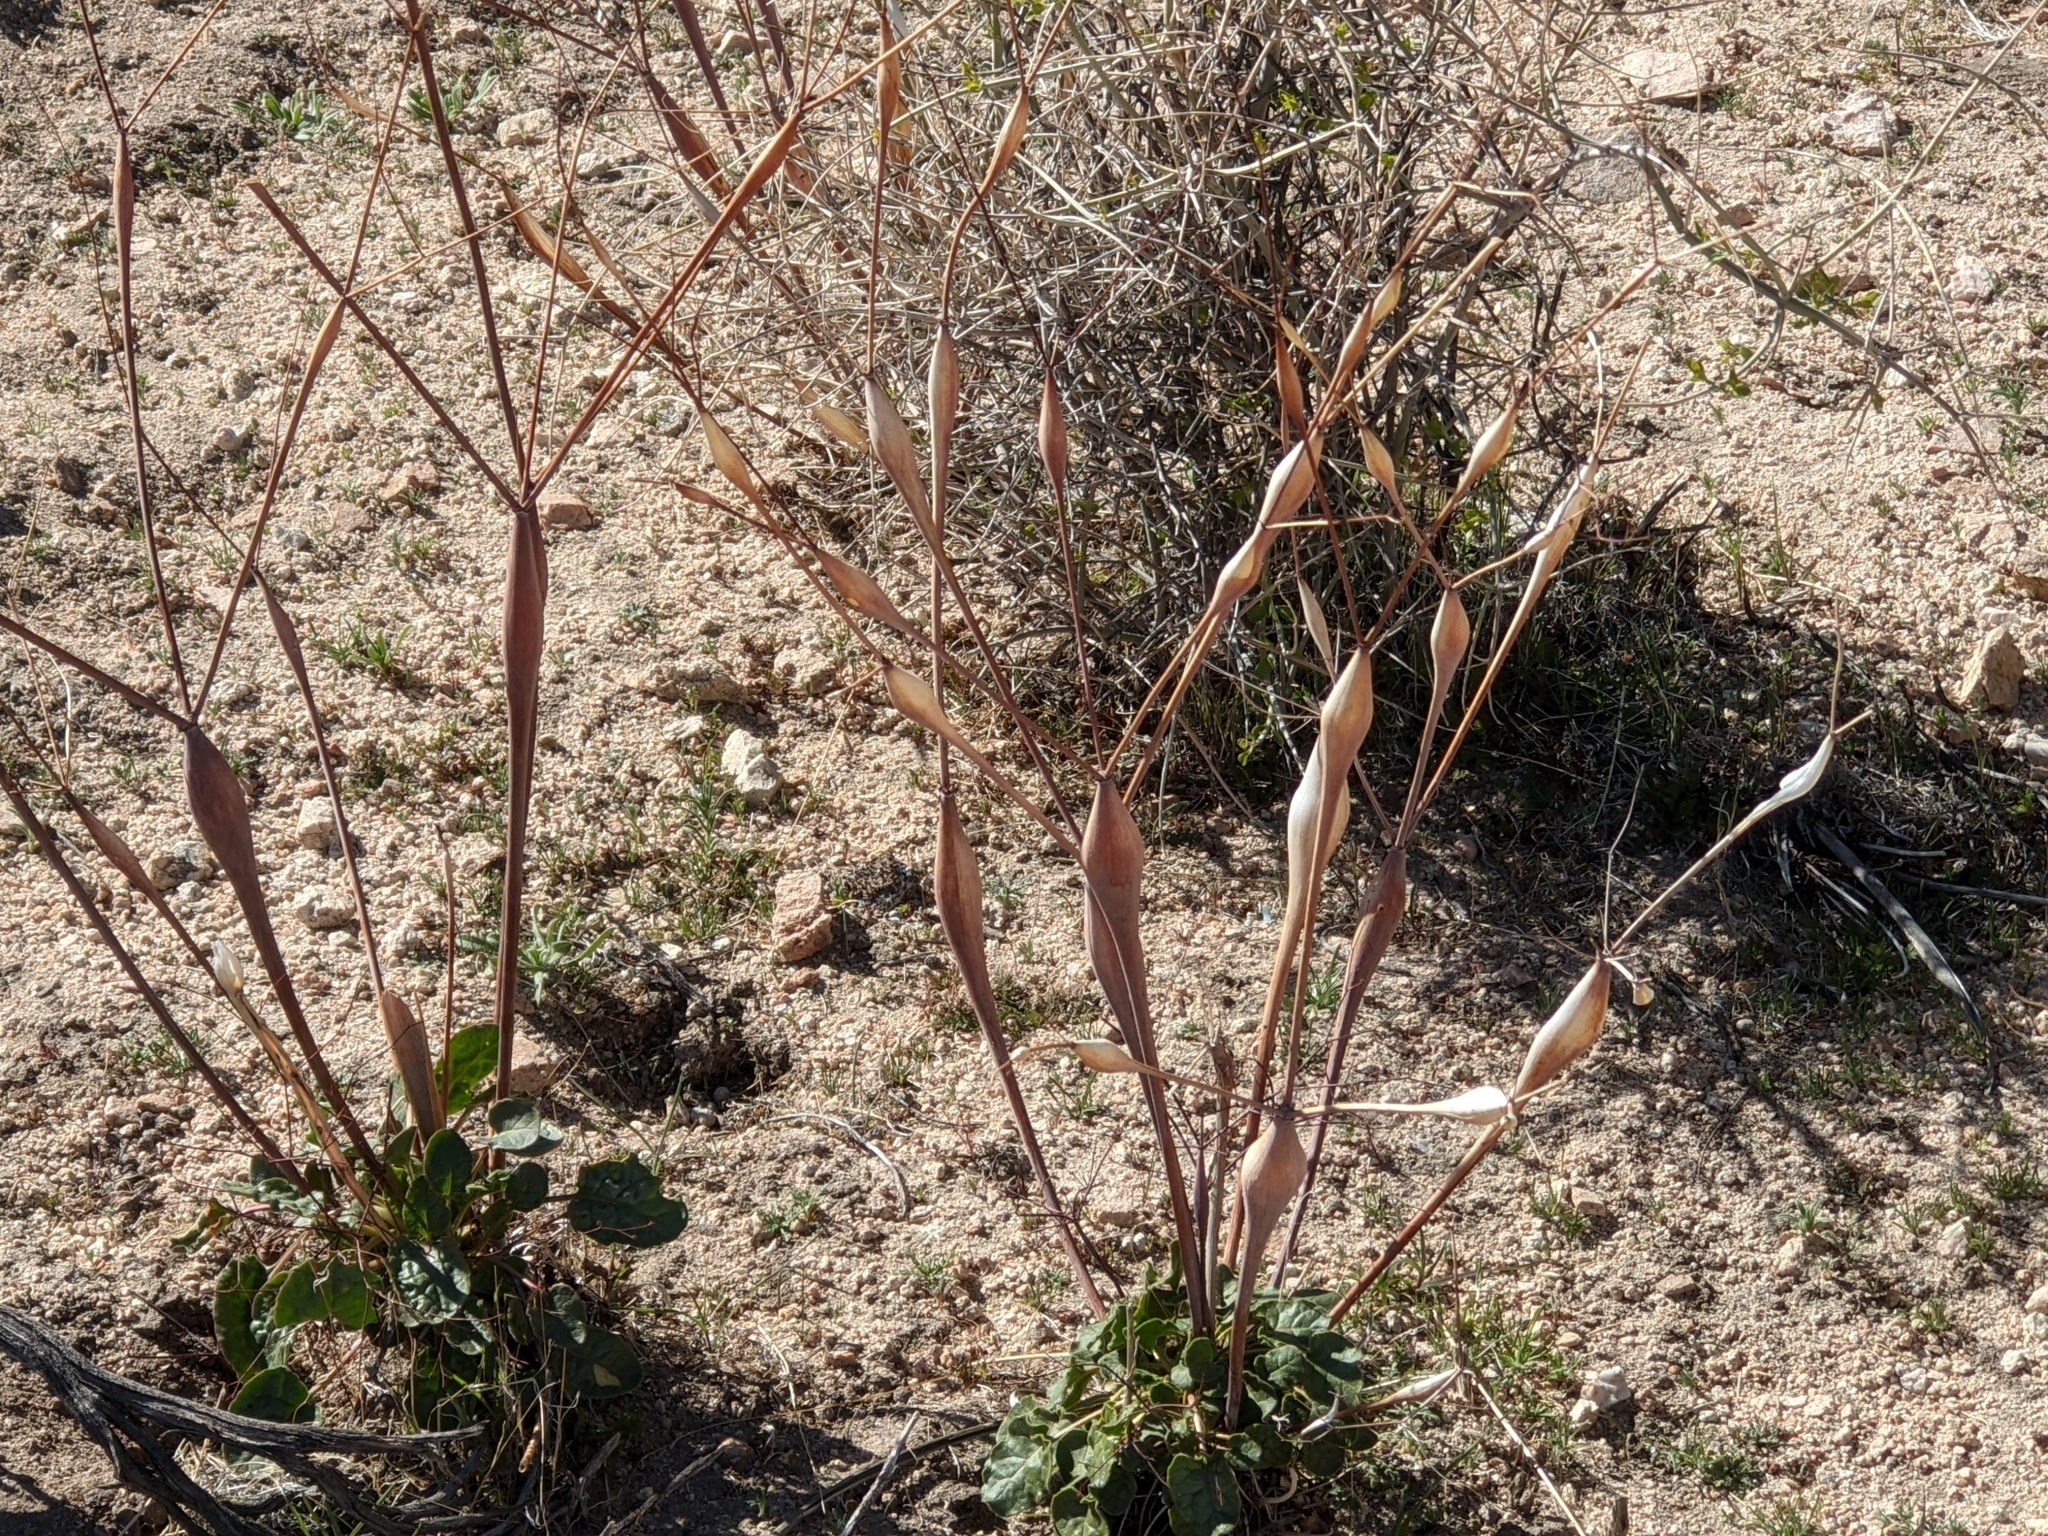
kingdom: Plantae
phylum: Tracheophyta
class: Magnoliopsida
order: Caryophyllales
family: Polygonaceae
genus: Eriogonum
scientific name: Eriogonum inflatum
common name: Desert trumpet
